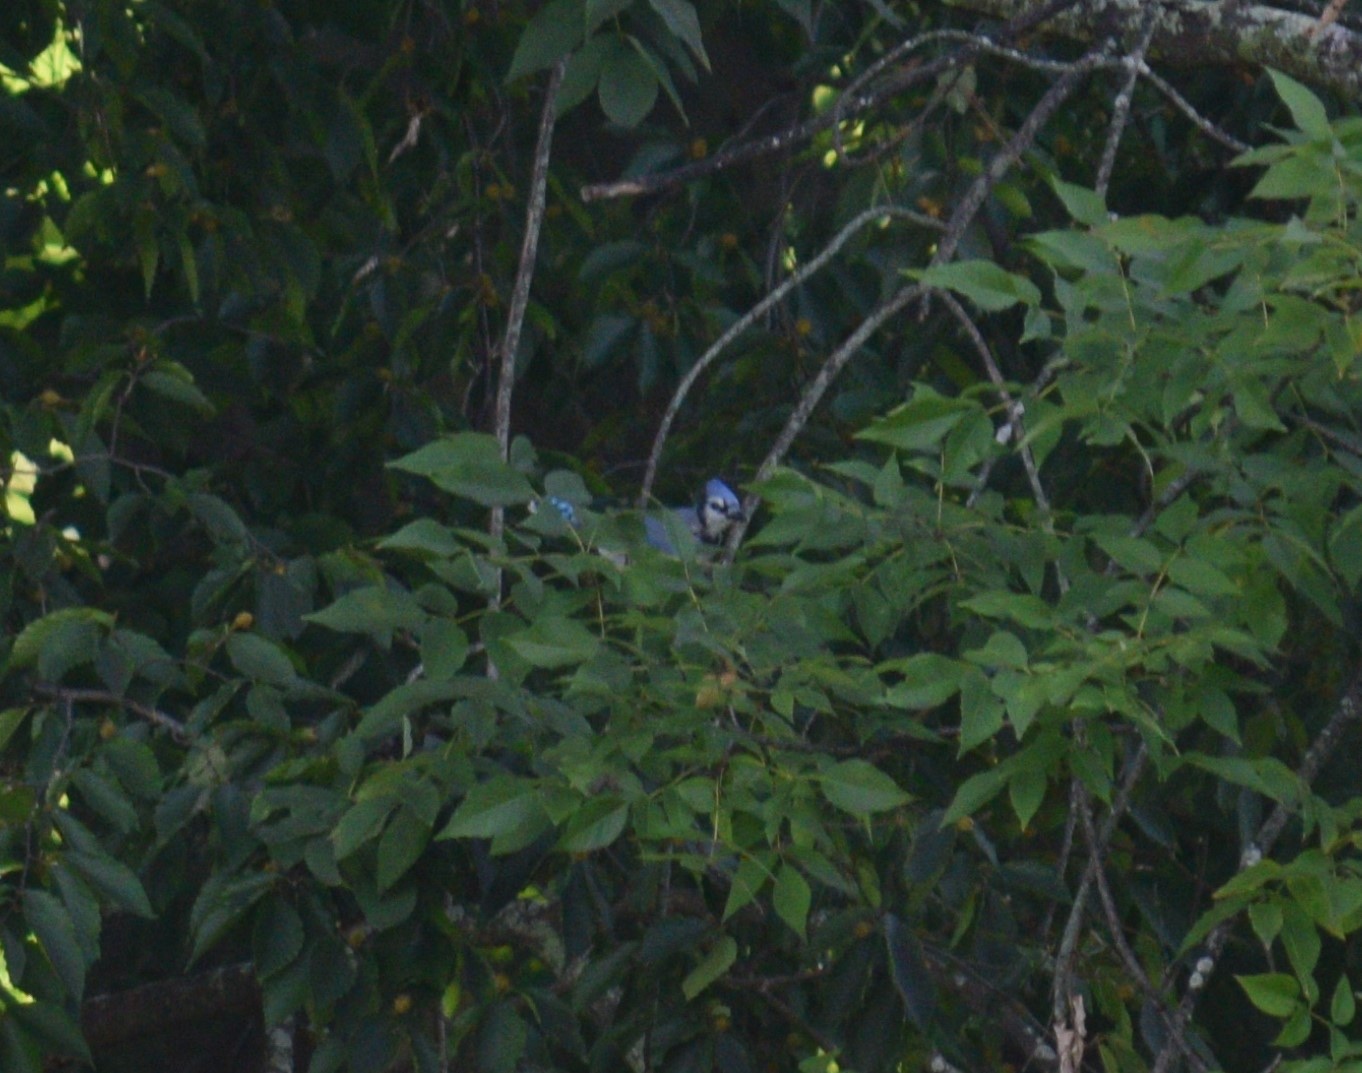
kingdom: Animalia
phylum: Chordata
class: Aves
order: Passeriformes
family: Corvidae
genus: Cyanocitta
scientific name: Cyanocitta cristata
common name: Blue jay
